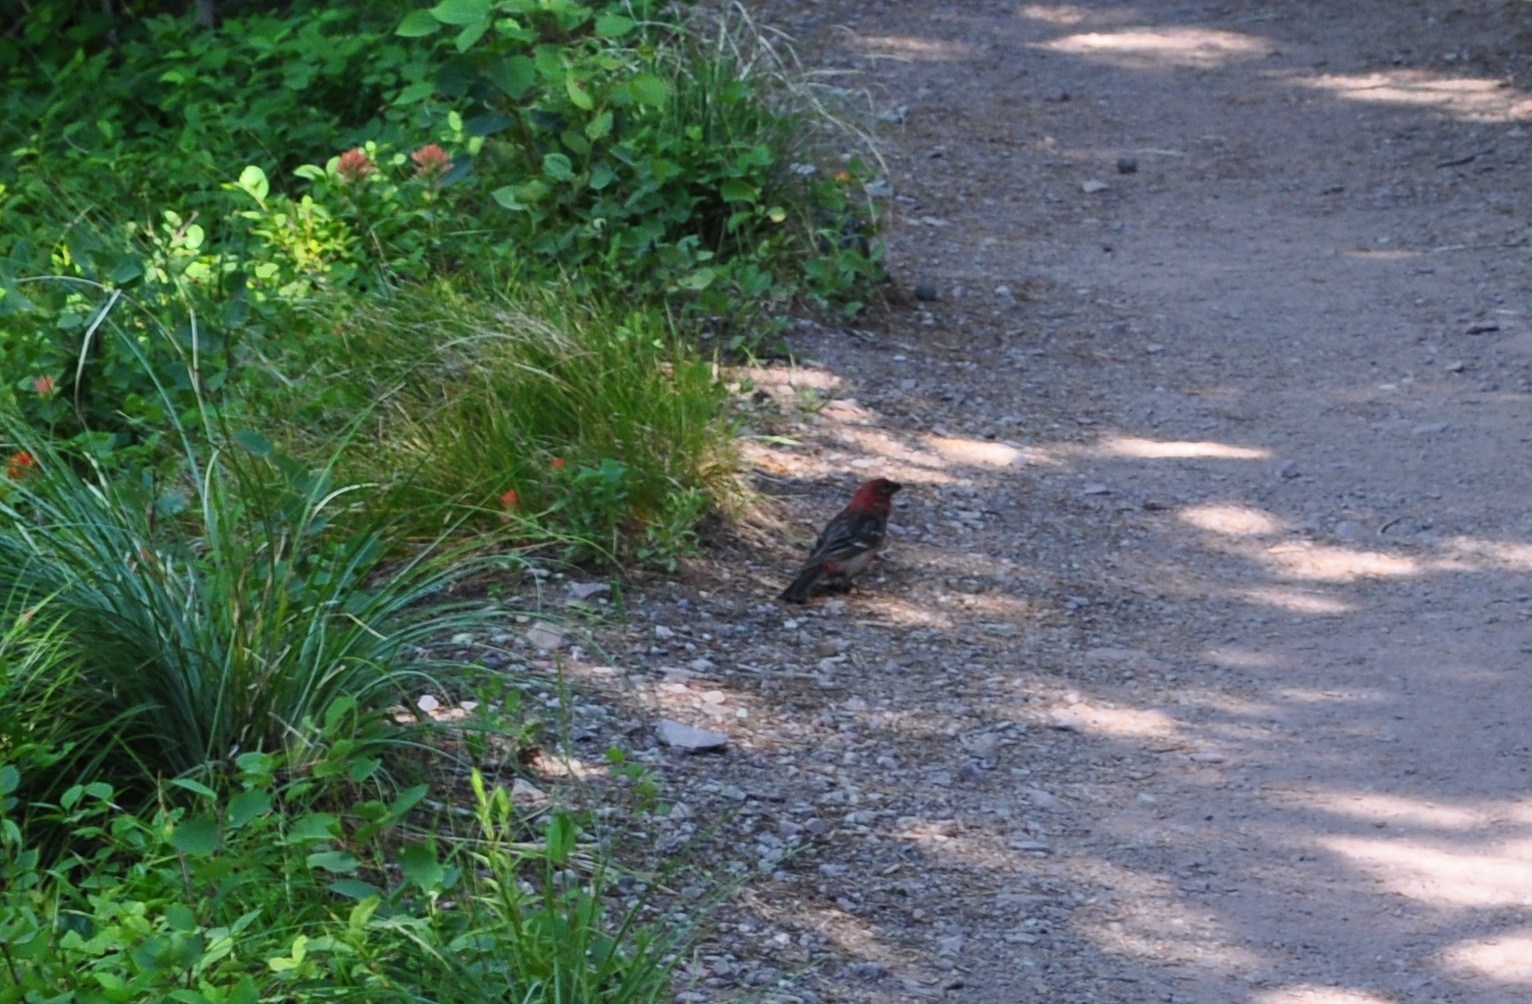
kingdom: Animalia
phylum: Chordata
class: Aves
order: Passeriformes
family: Fringillidae
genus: Pinicola
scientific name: Pinicola enucleator
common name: Pine grosbeak
